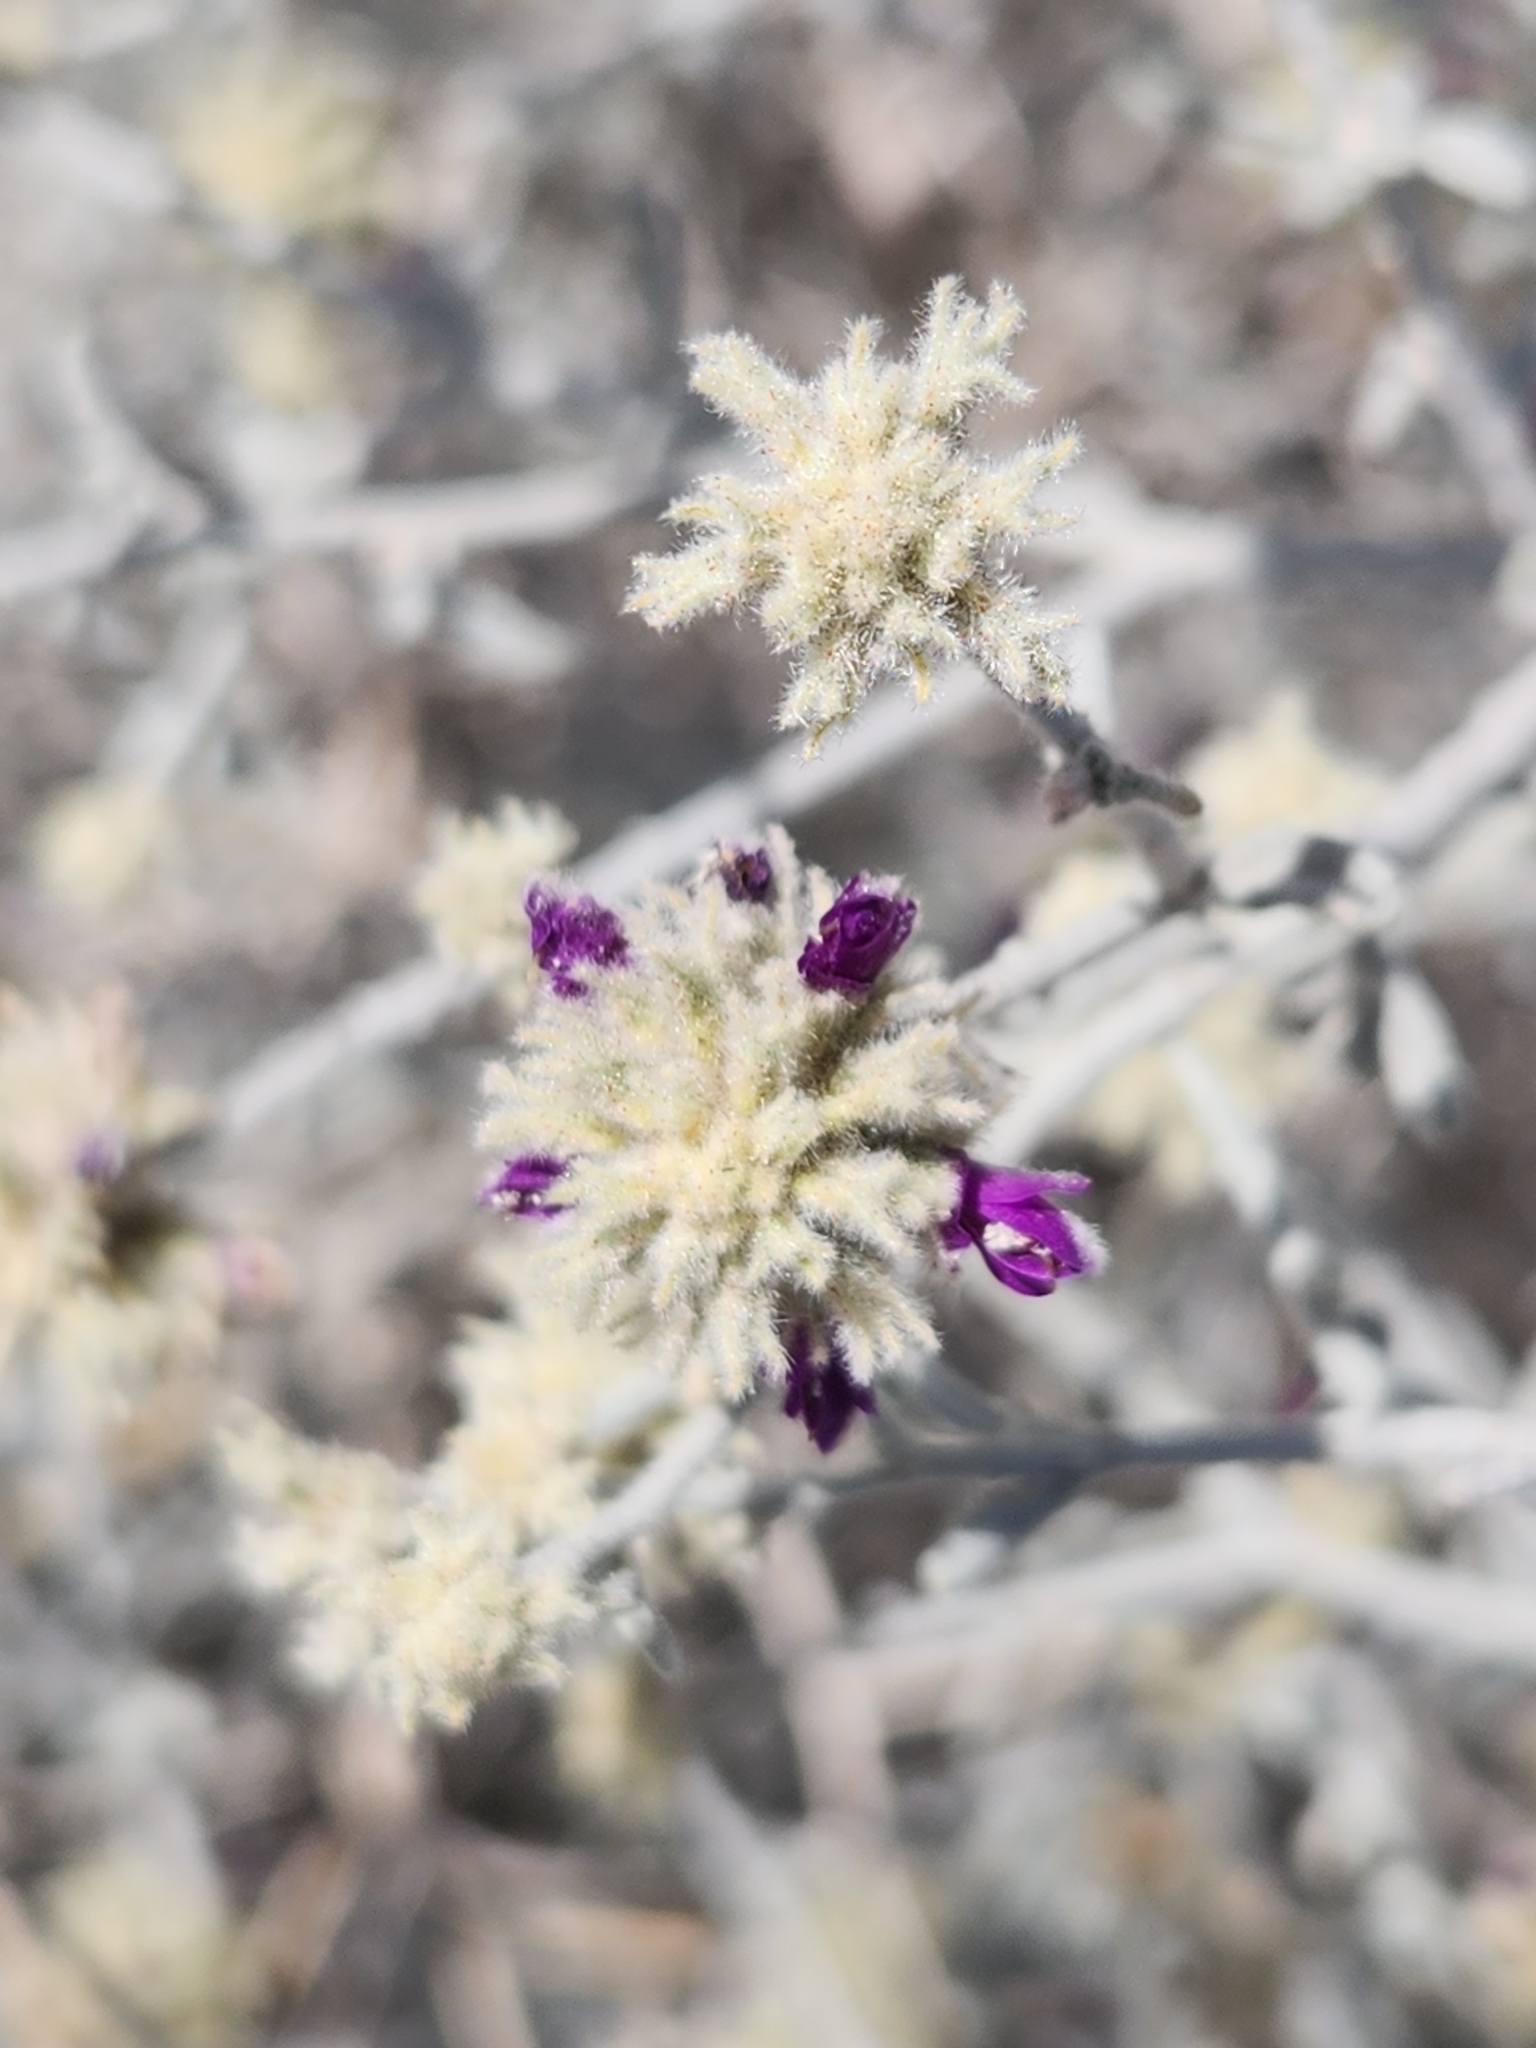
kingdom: Plantae
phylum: Tracheophyta
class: Magnoliopsida
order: Fabales
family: Fabaceae
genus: Psorothamnus
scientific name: Psorothamnus emoryi
